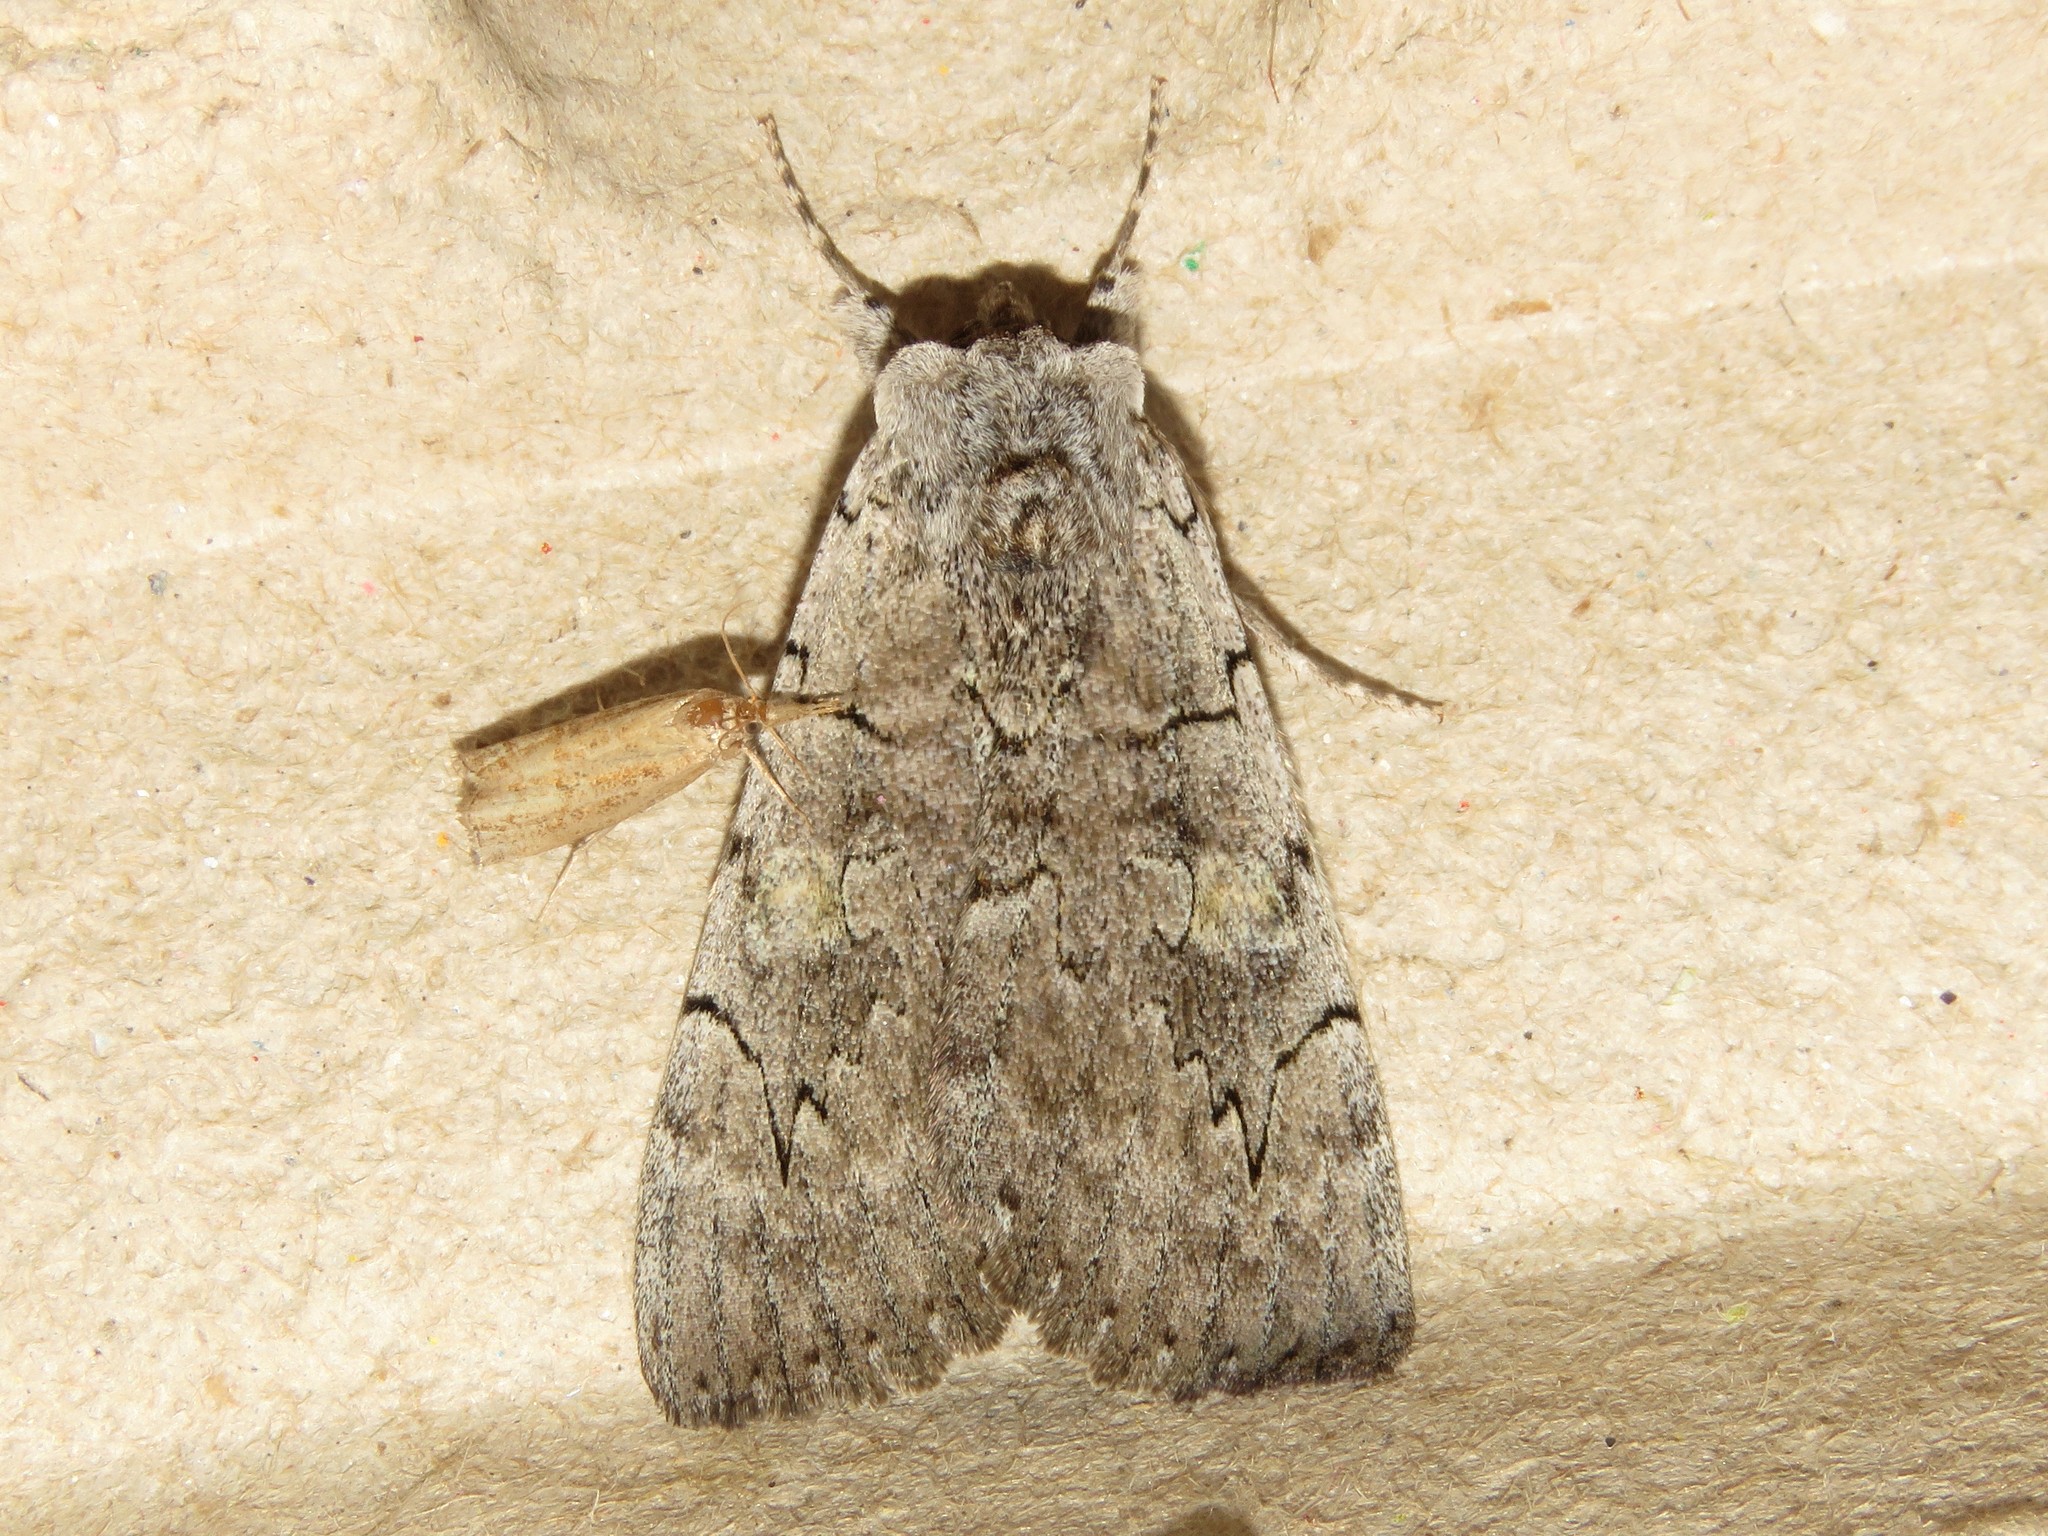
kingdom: Animalia
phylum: Arthropoda
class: Insecta
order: Lepidoptera
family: Erebidae
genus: Catocala
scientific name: Catocala concumbens
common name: Pink underwing
